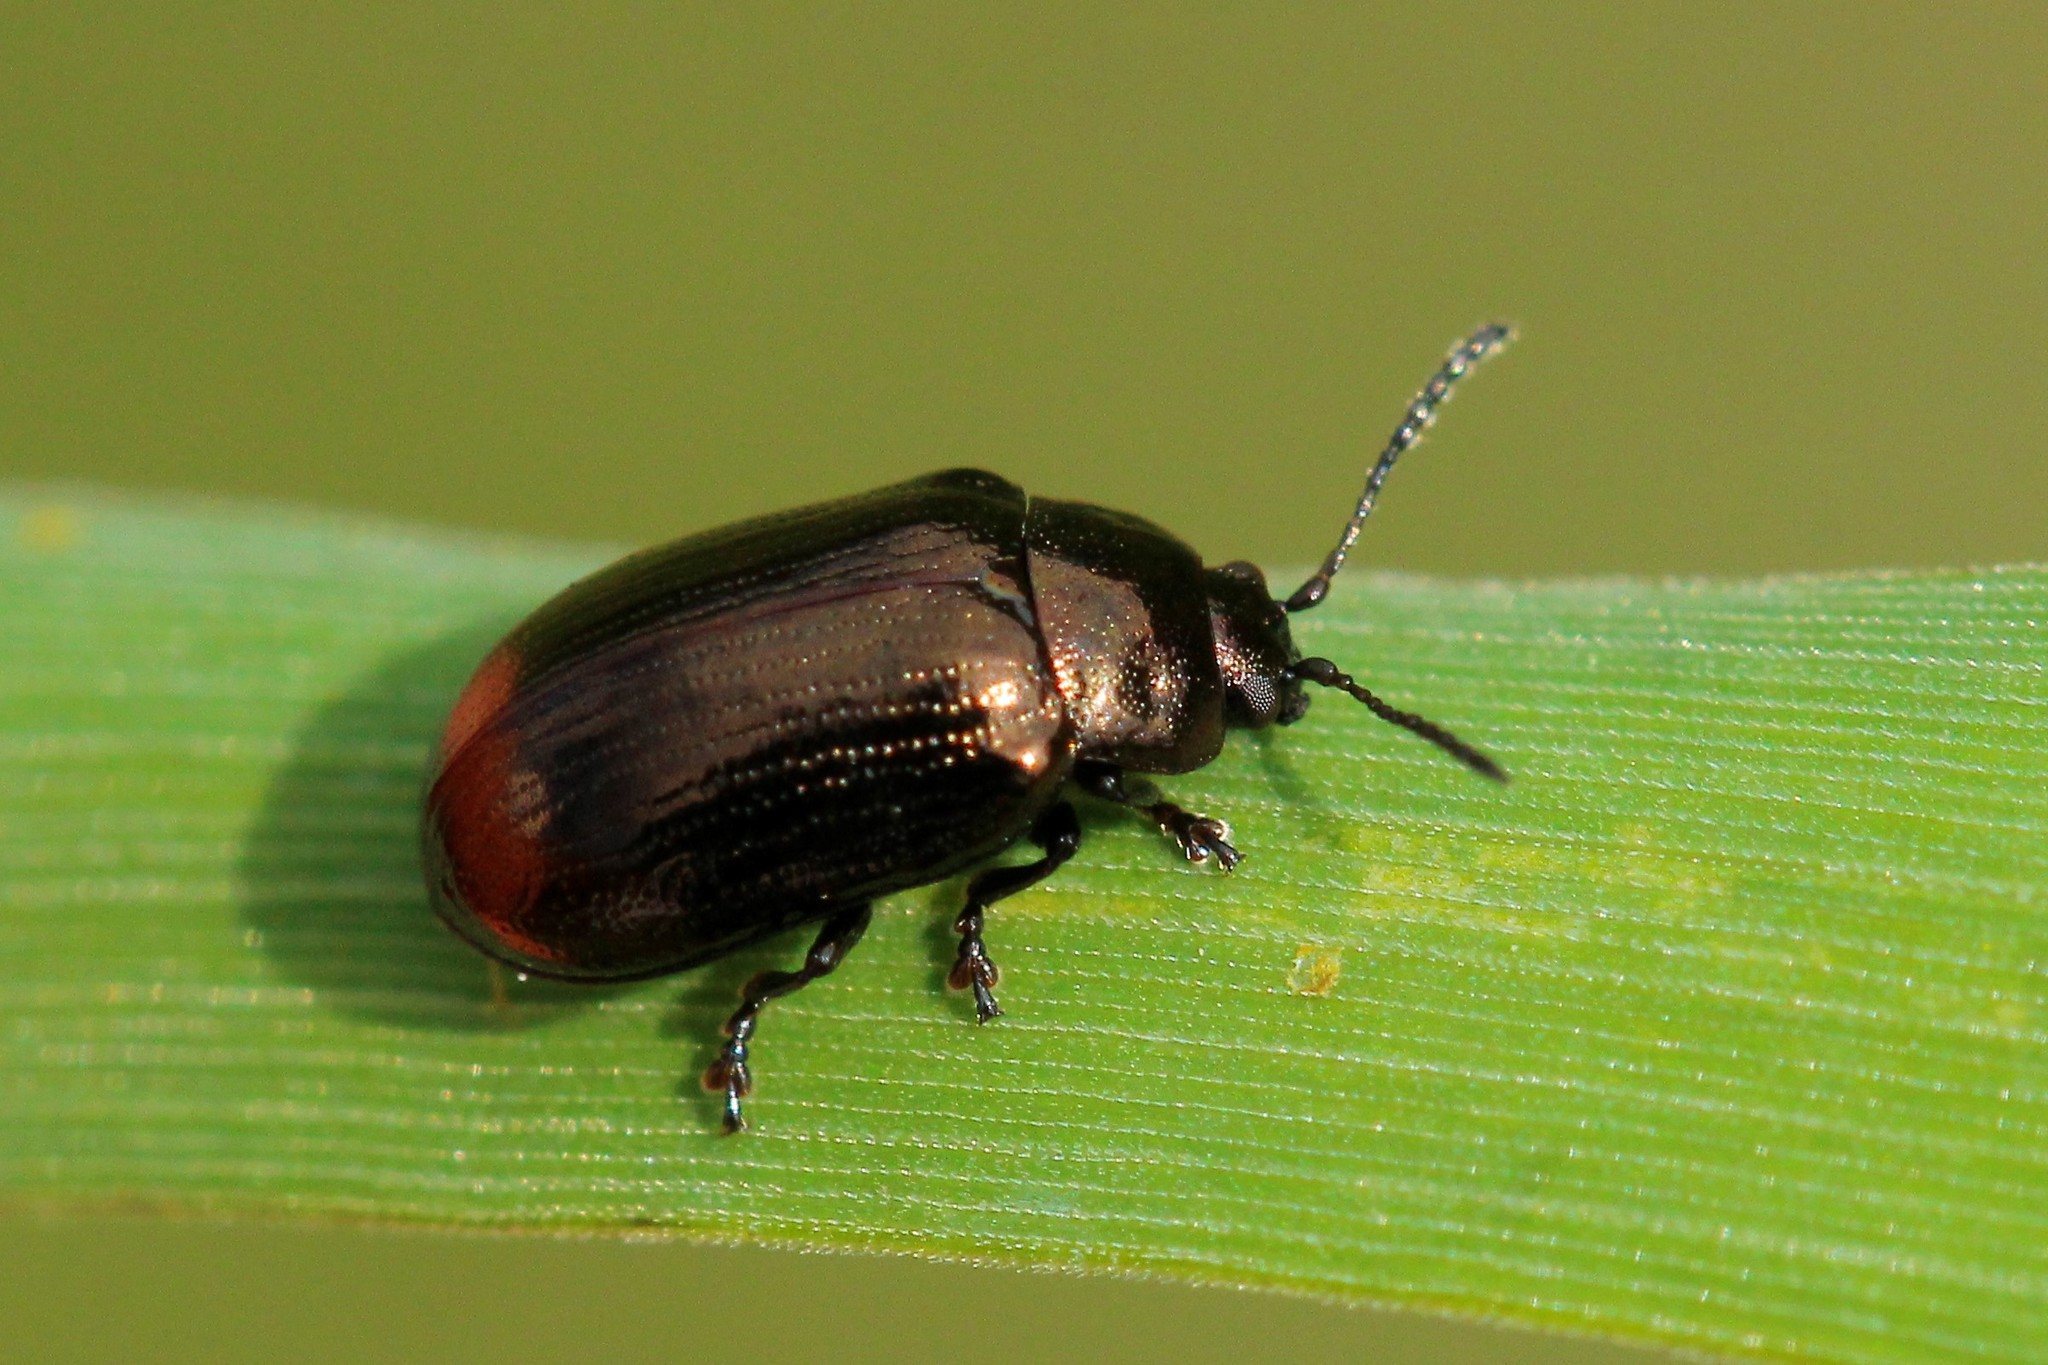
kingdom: Animalia
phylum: Arthropoda
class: Insecta
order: Coleoptera
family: Chrysomelidae
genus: Phratora
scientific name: Phratora vitellinae
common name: Brassy willow beetle
